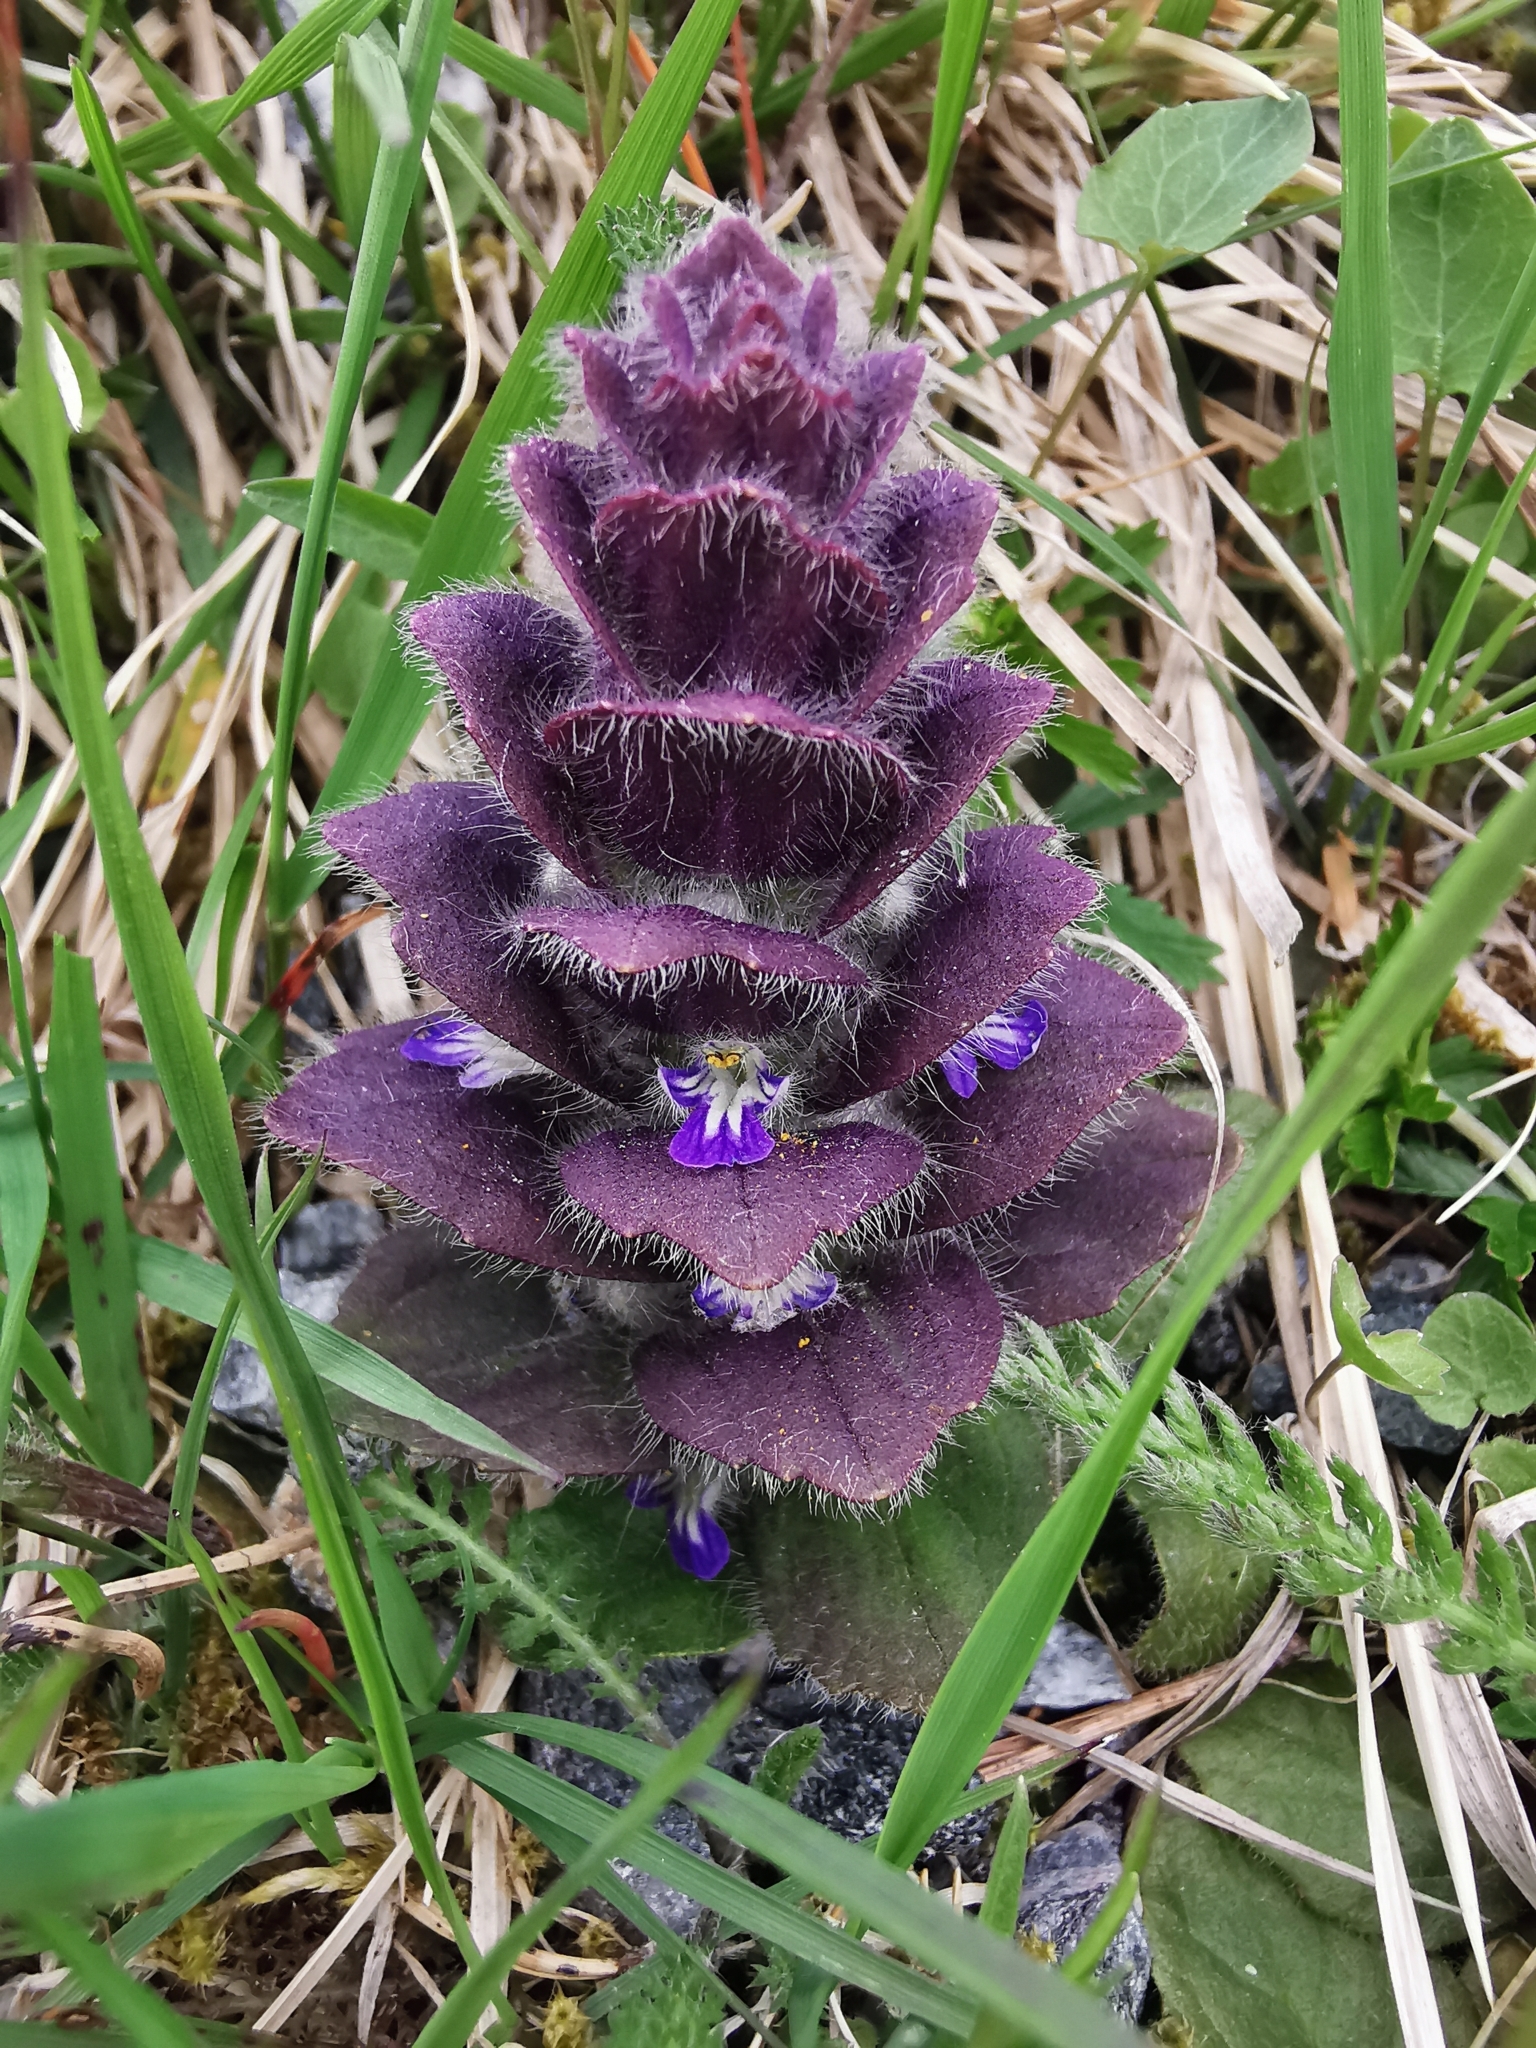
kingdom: Plantae
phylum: Tracheophyta
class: Magnoliopsida
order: Lamiales
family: Lamiaceae
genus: Ajuga
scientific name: Ajuga pyramidalis
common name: Pyramid bugle
